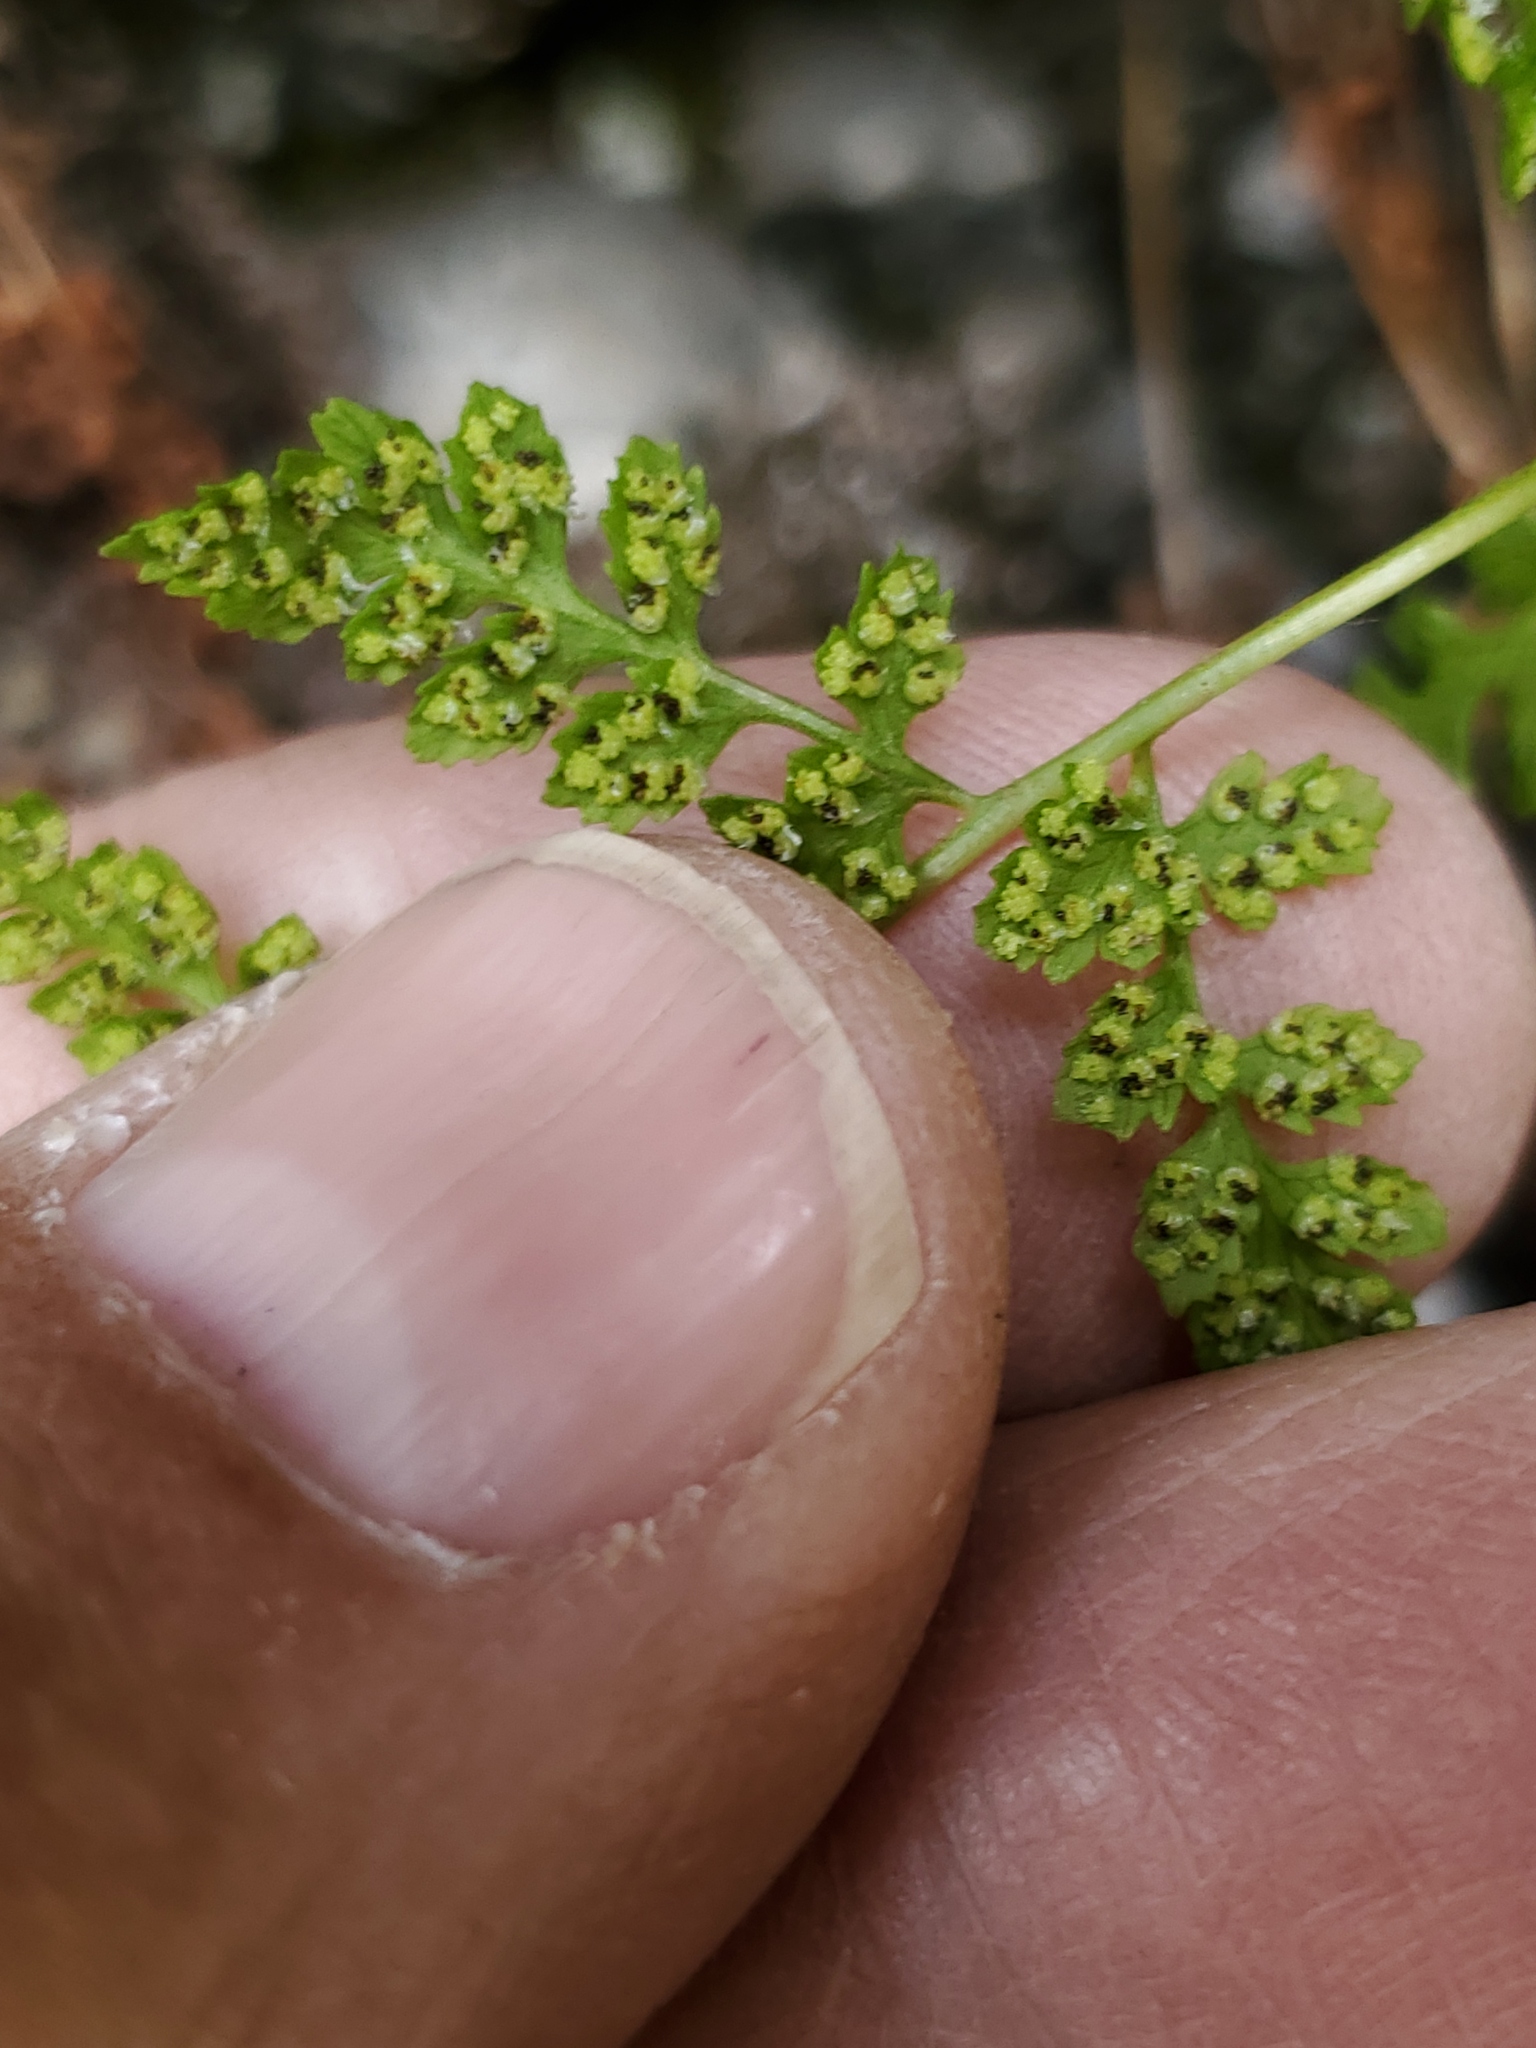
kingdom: Plantae
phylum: Tracheophyta
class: Polypodiopsida
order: Polypodiales
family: Cystopteridaceae
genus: Cystopteris
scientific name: Cystopteris fragilis
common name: Brittle bladder fern
